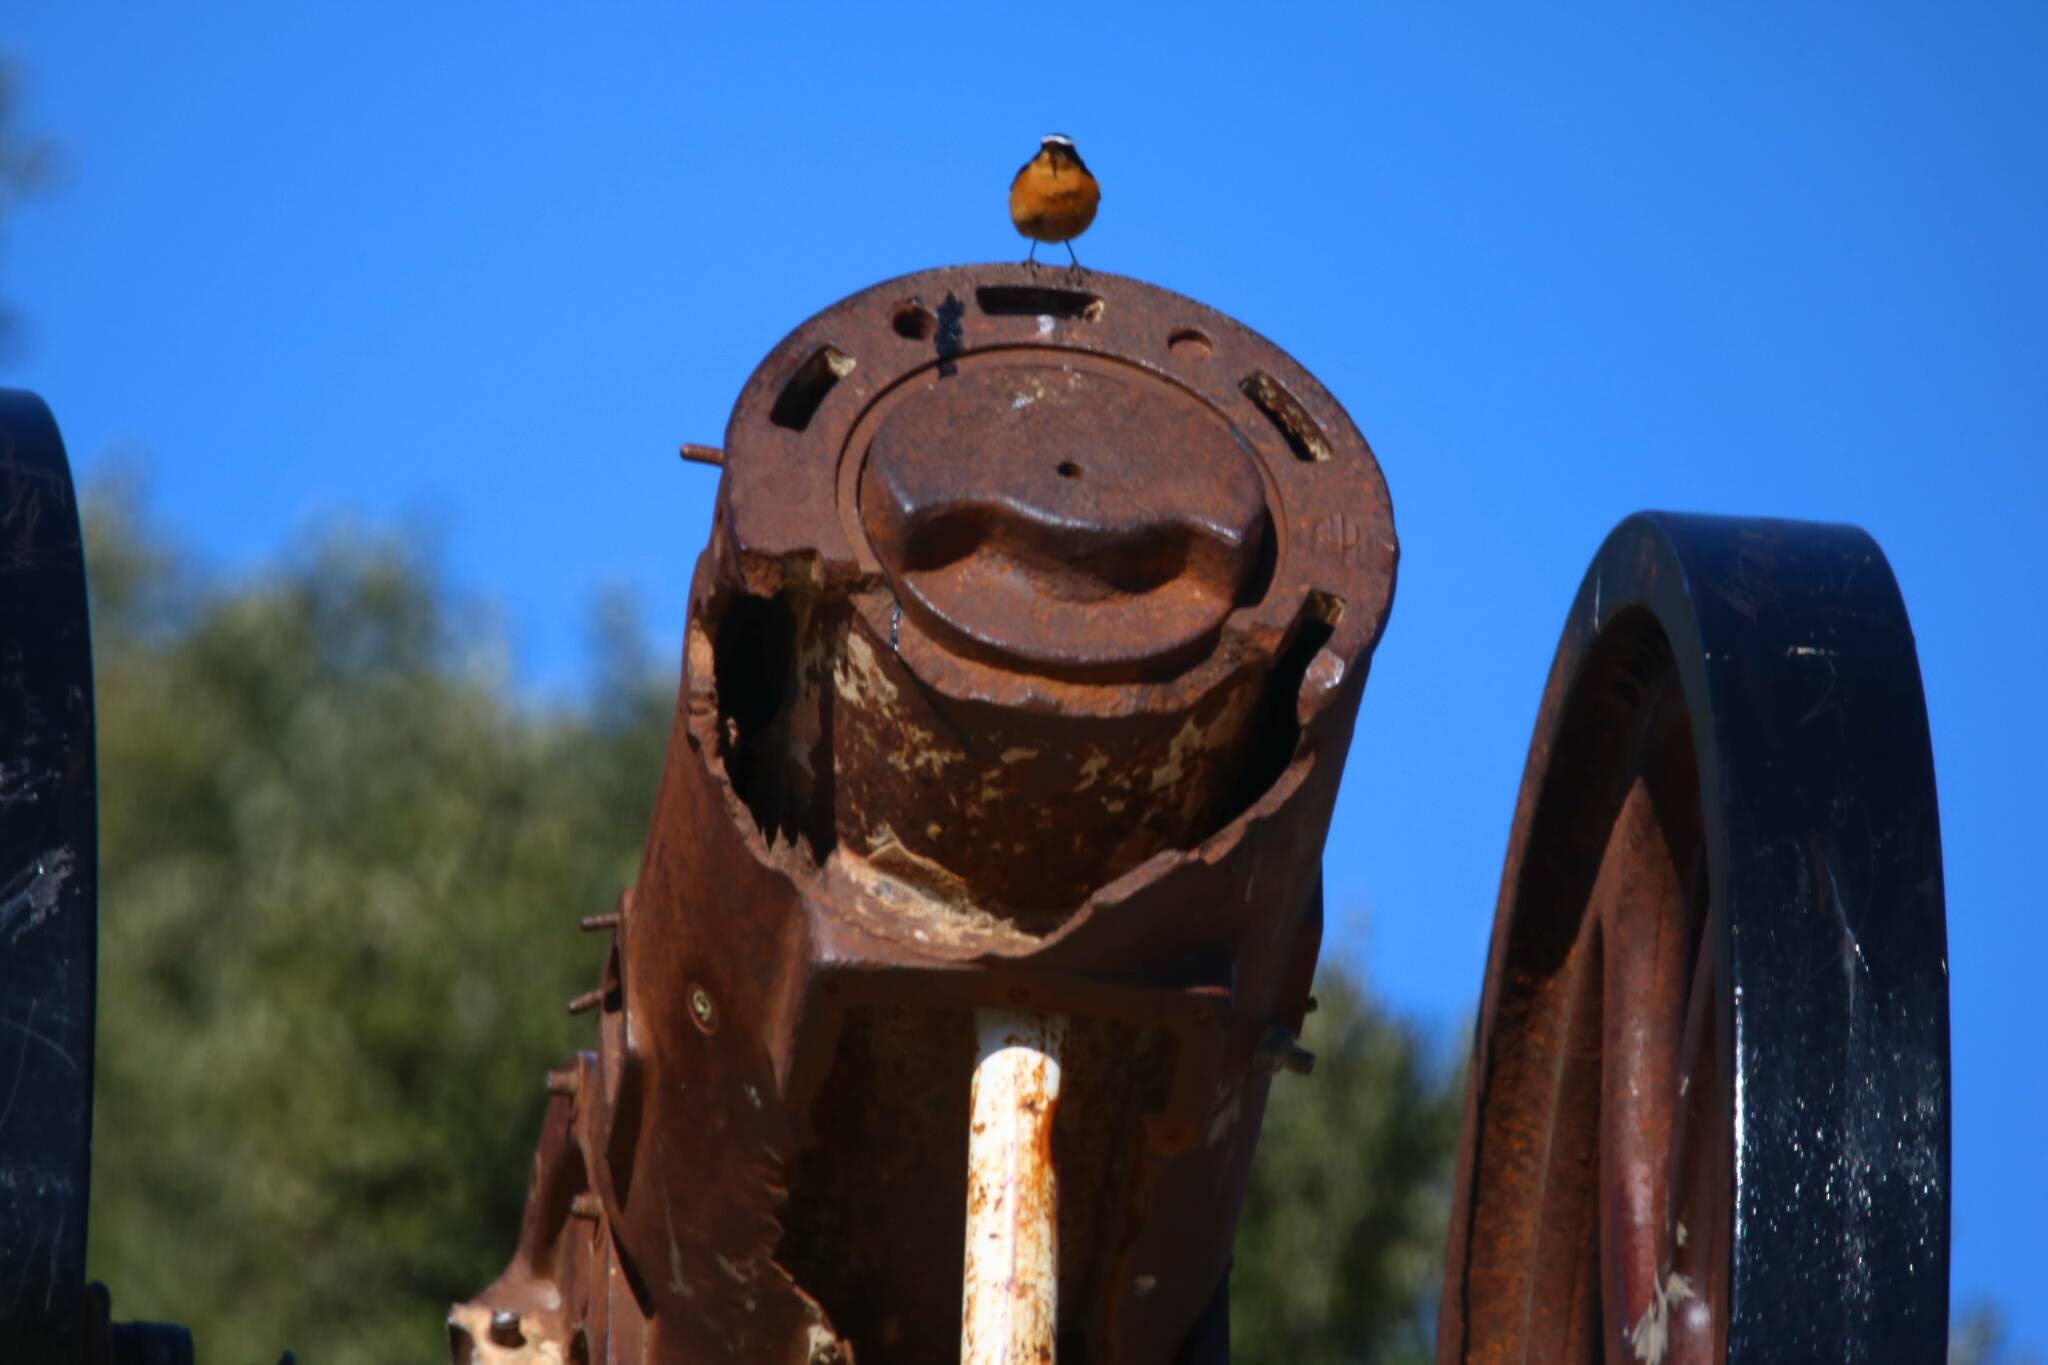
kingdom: Animalia
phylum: Chordata
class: Aves
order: Passeriformes
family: Muscicapidae
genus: Phoenicurus
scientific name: Phoenicurus moussieri
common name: Moussier's redstart
